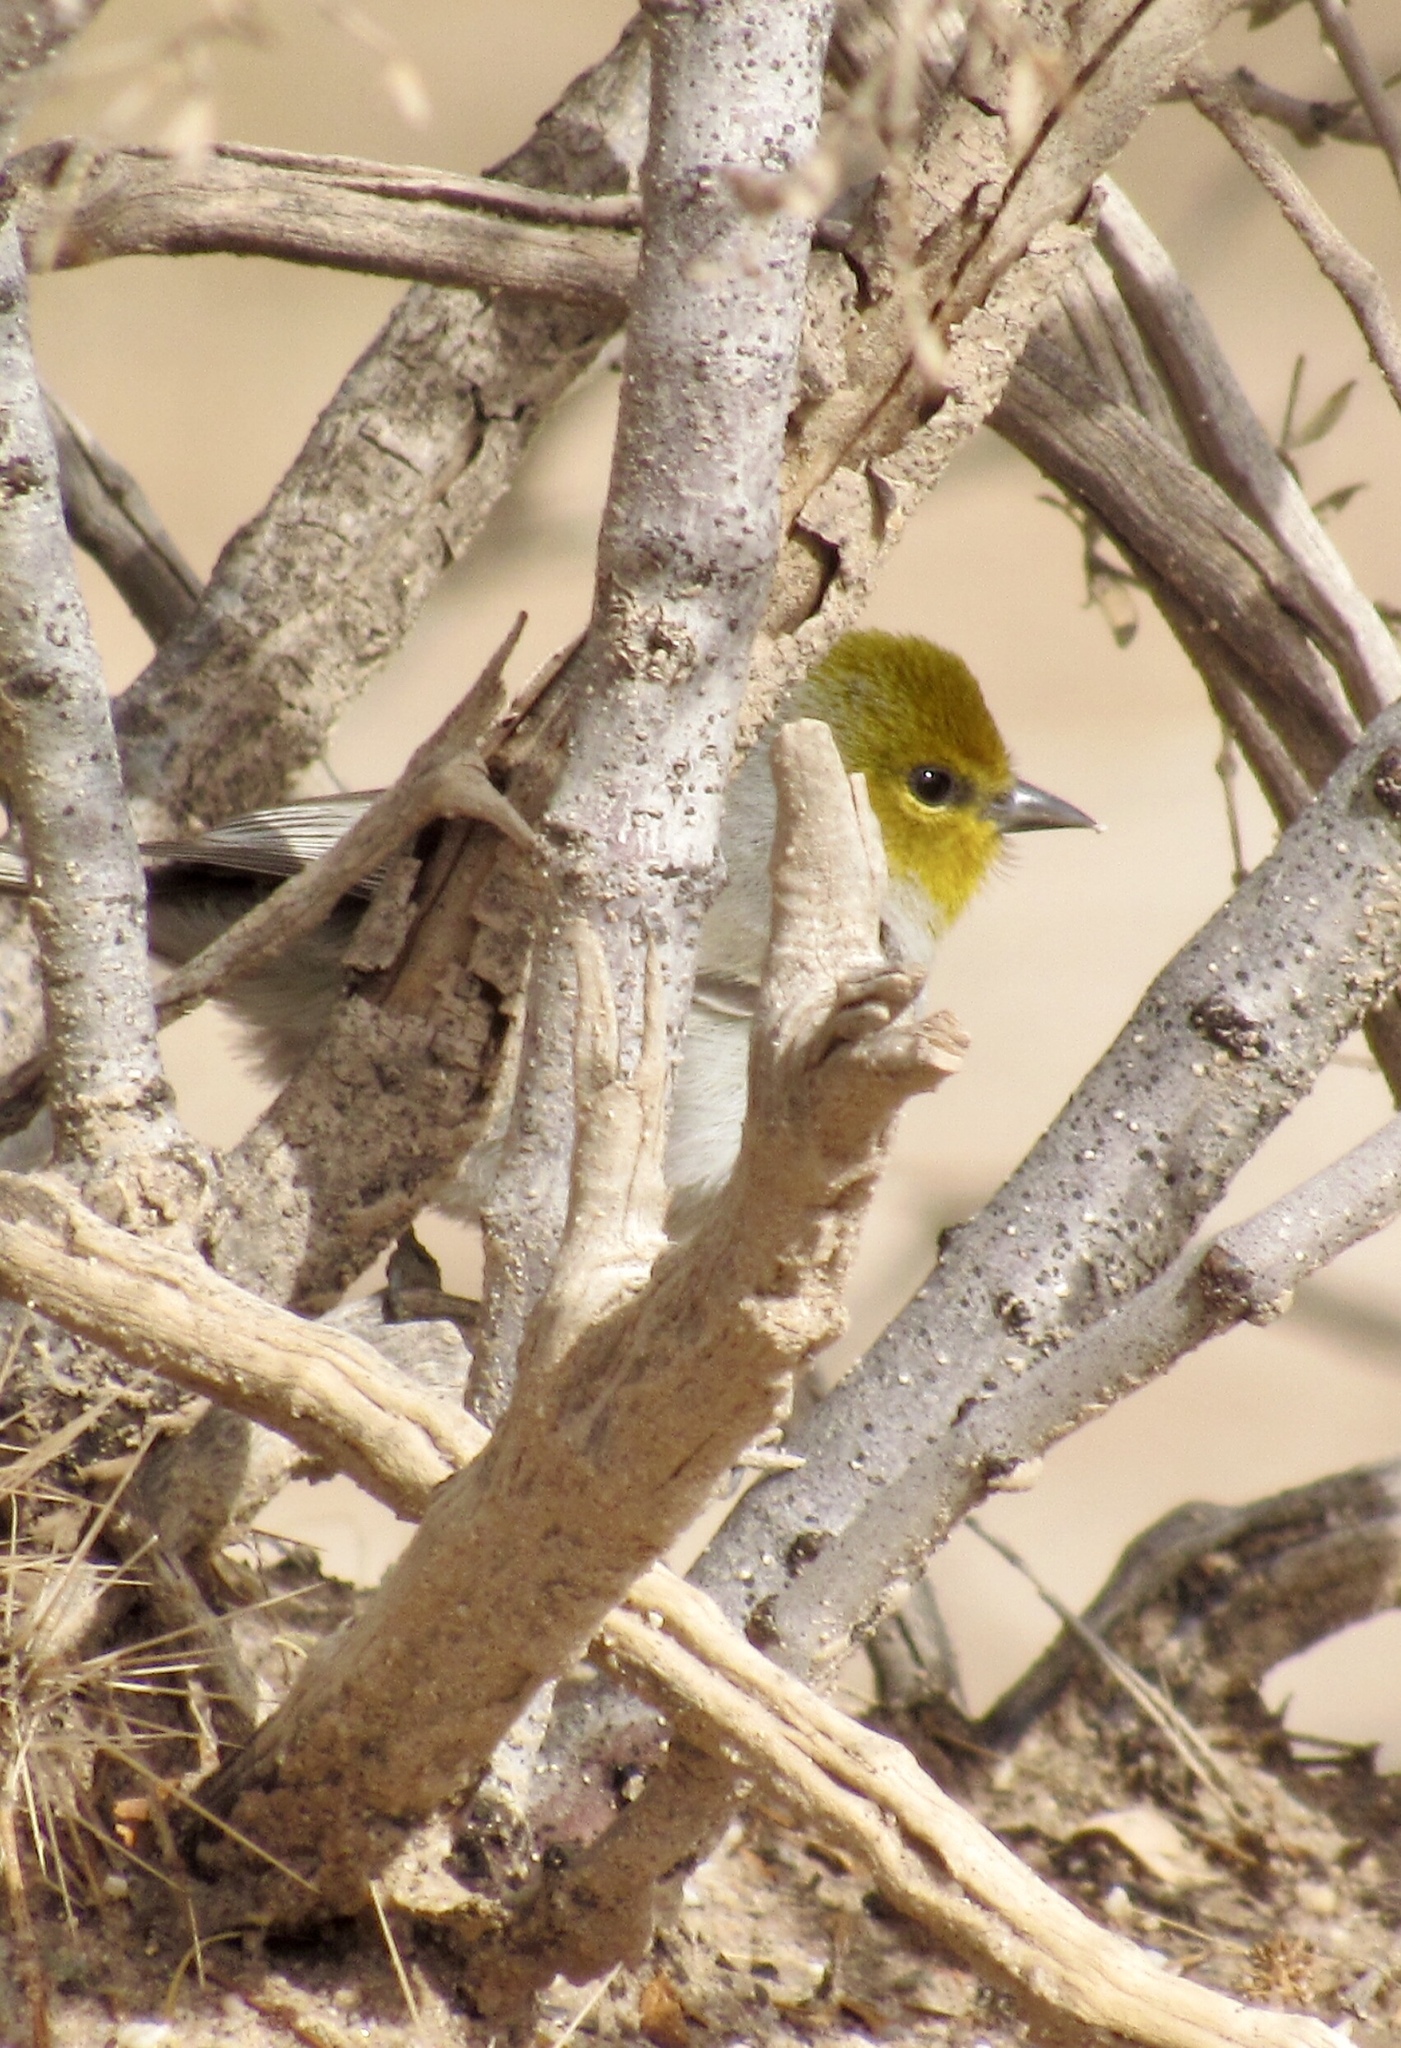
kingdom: Animalia
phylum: Chordata
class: Aves
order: Passeriformes
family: Remizidae
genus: Auriparus
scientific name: Auriparus flaviceps
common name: Verdin
